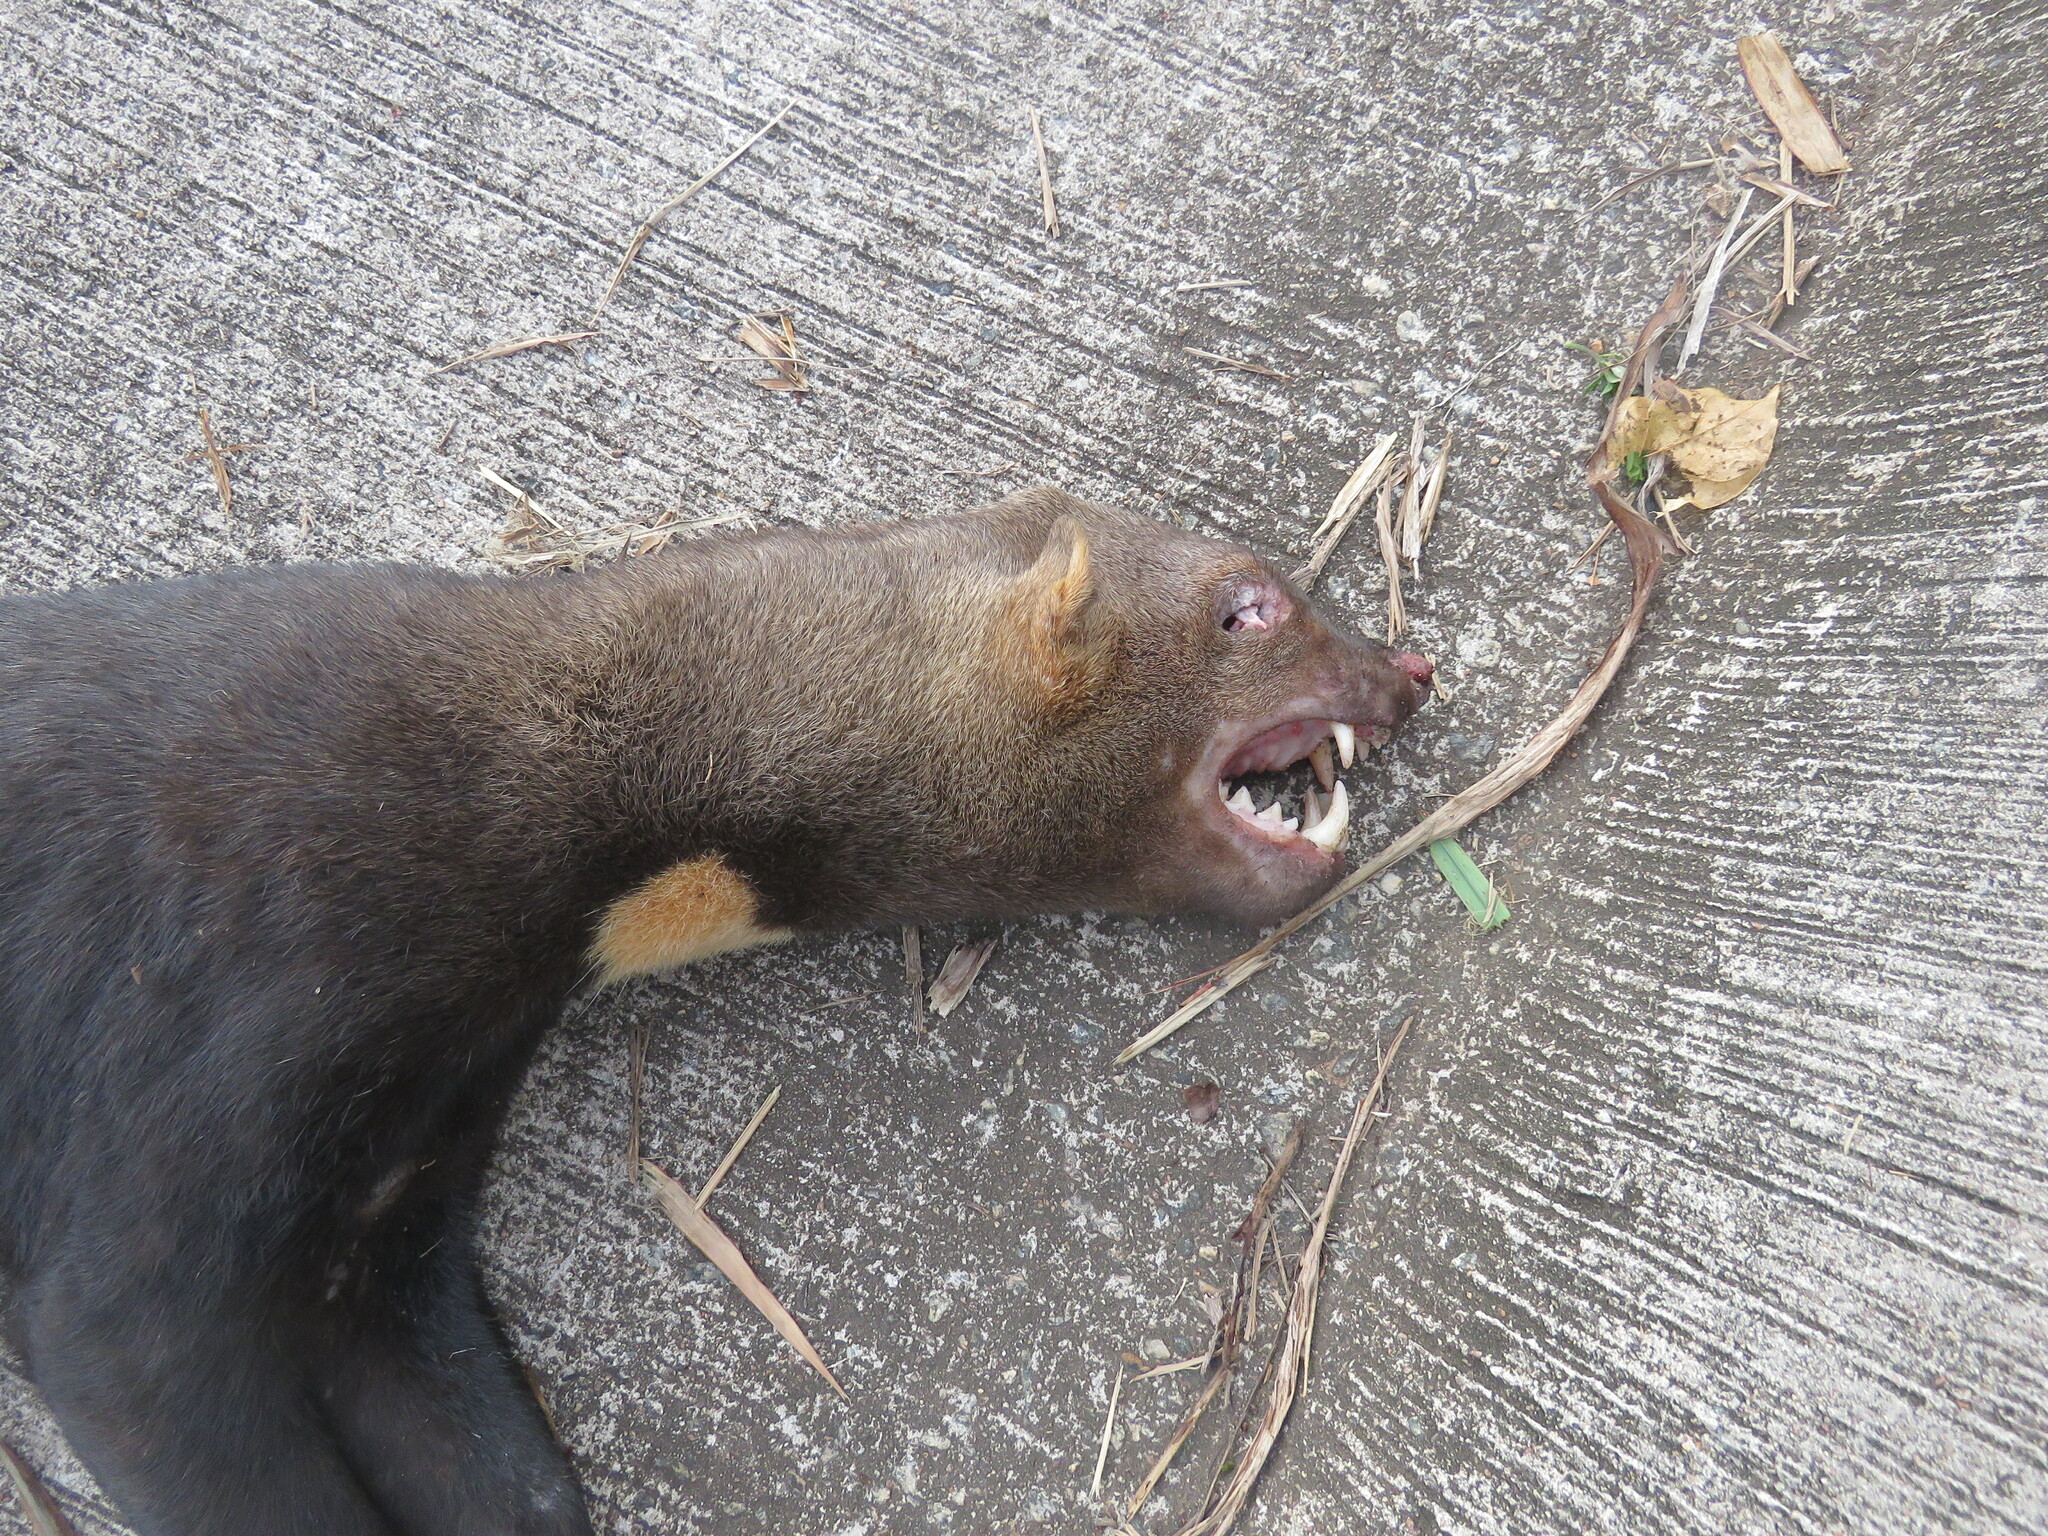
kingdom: Animalia
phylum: Chordata
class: Mammalia
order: Carnivora
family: Mustelidae
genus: Eira
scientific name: Eira barbara
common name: Tayra
